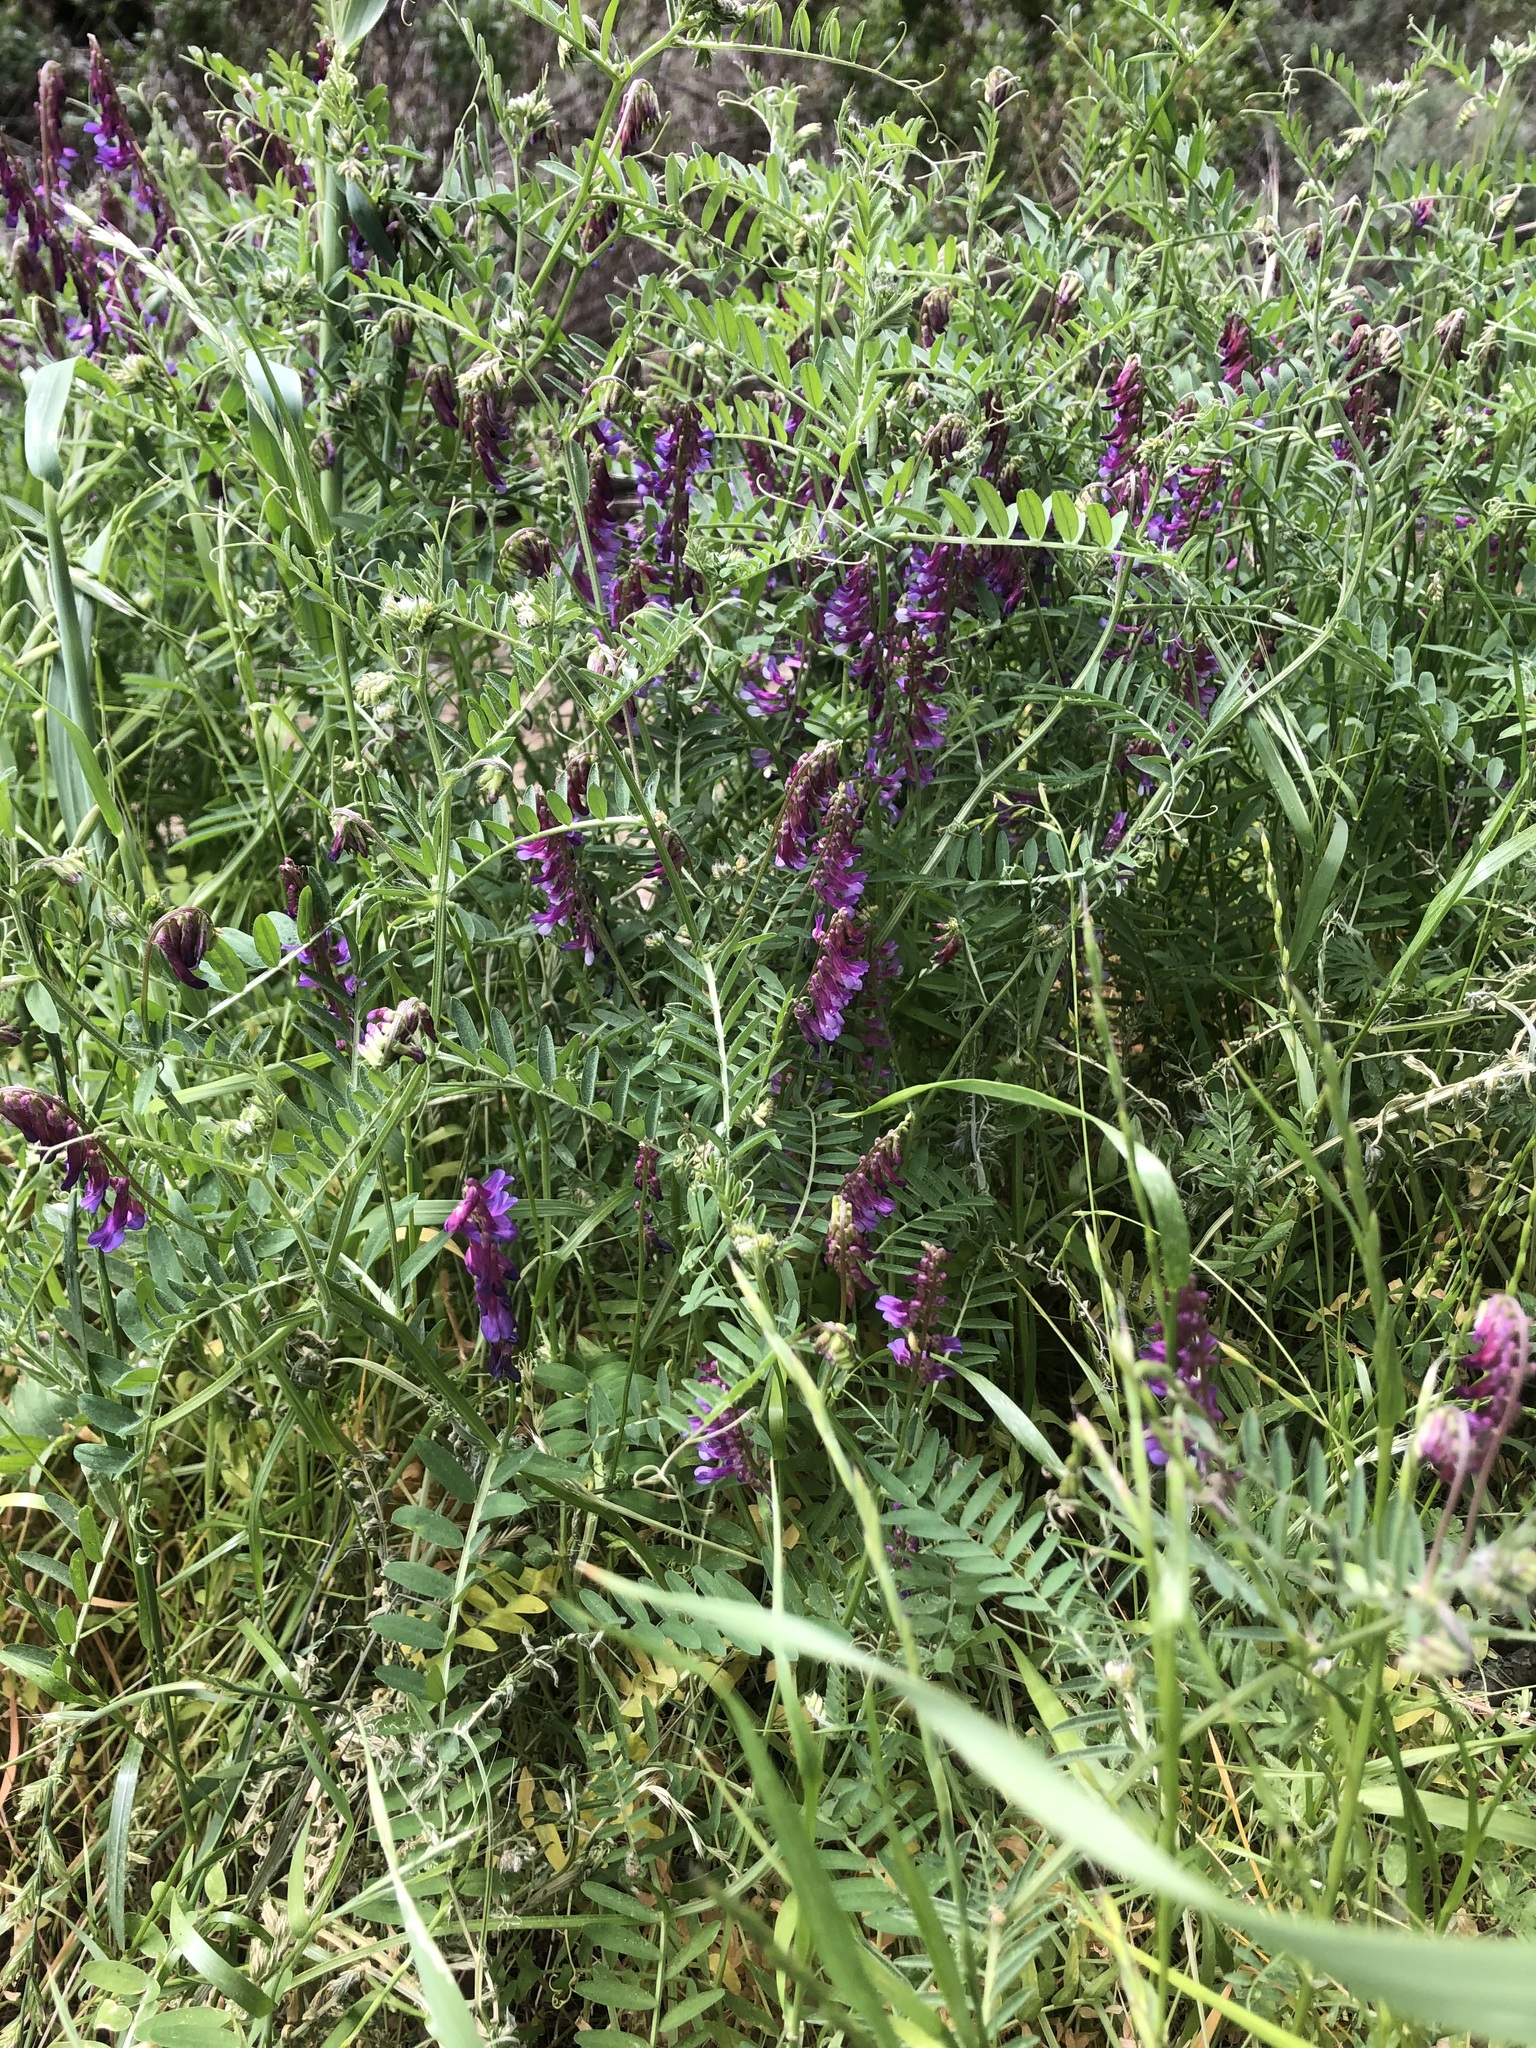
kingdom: Plantae
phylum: Tracheophyta
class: Magnoliopsida
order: Fabales
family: Fabaceae
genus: Vicia
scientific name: Vicia villosa
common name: Fodder vetch
